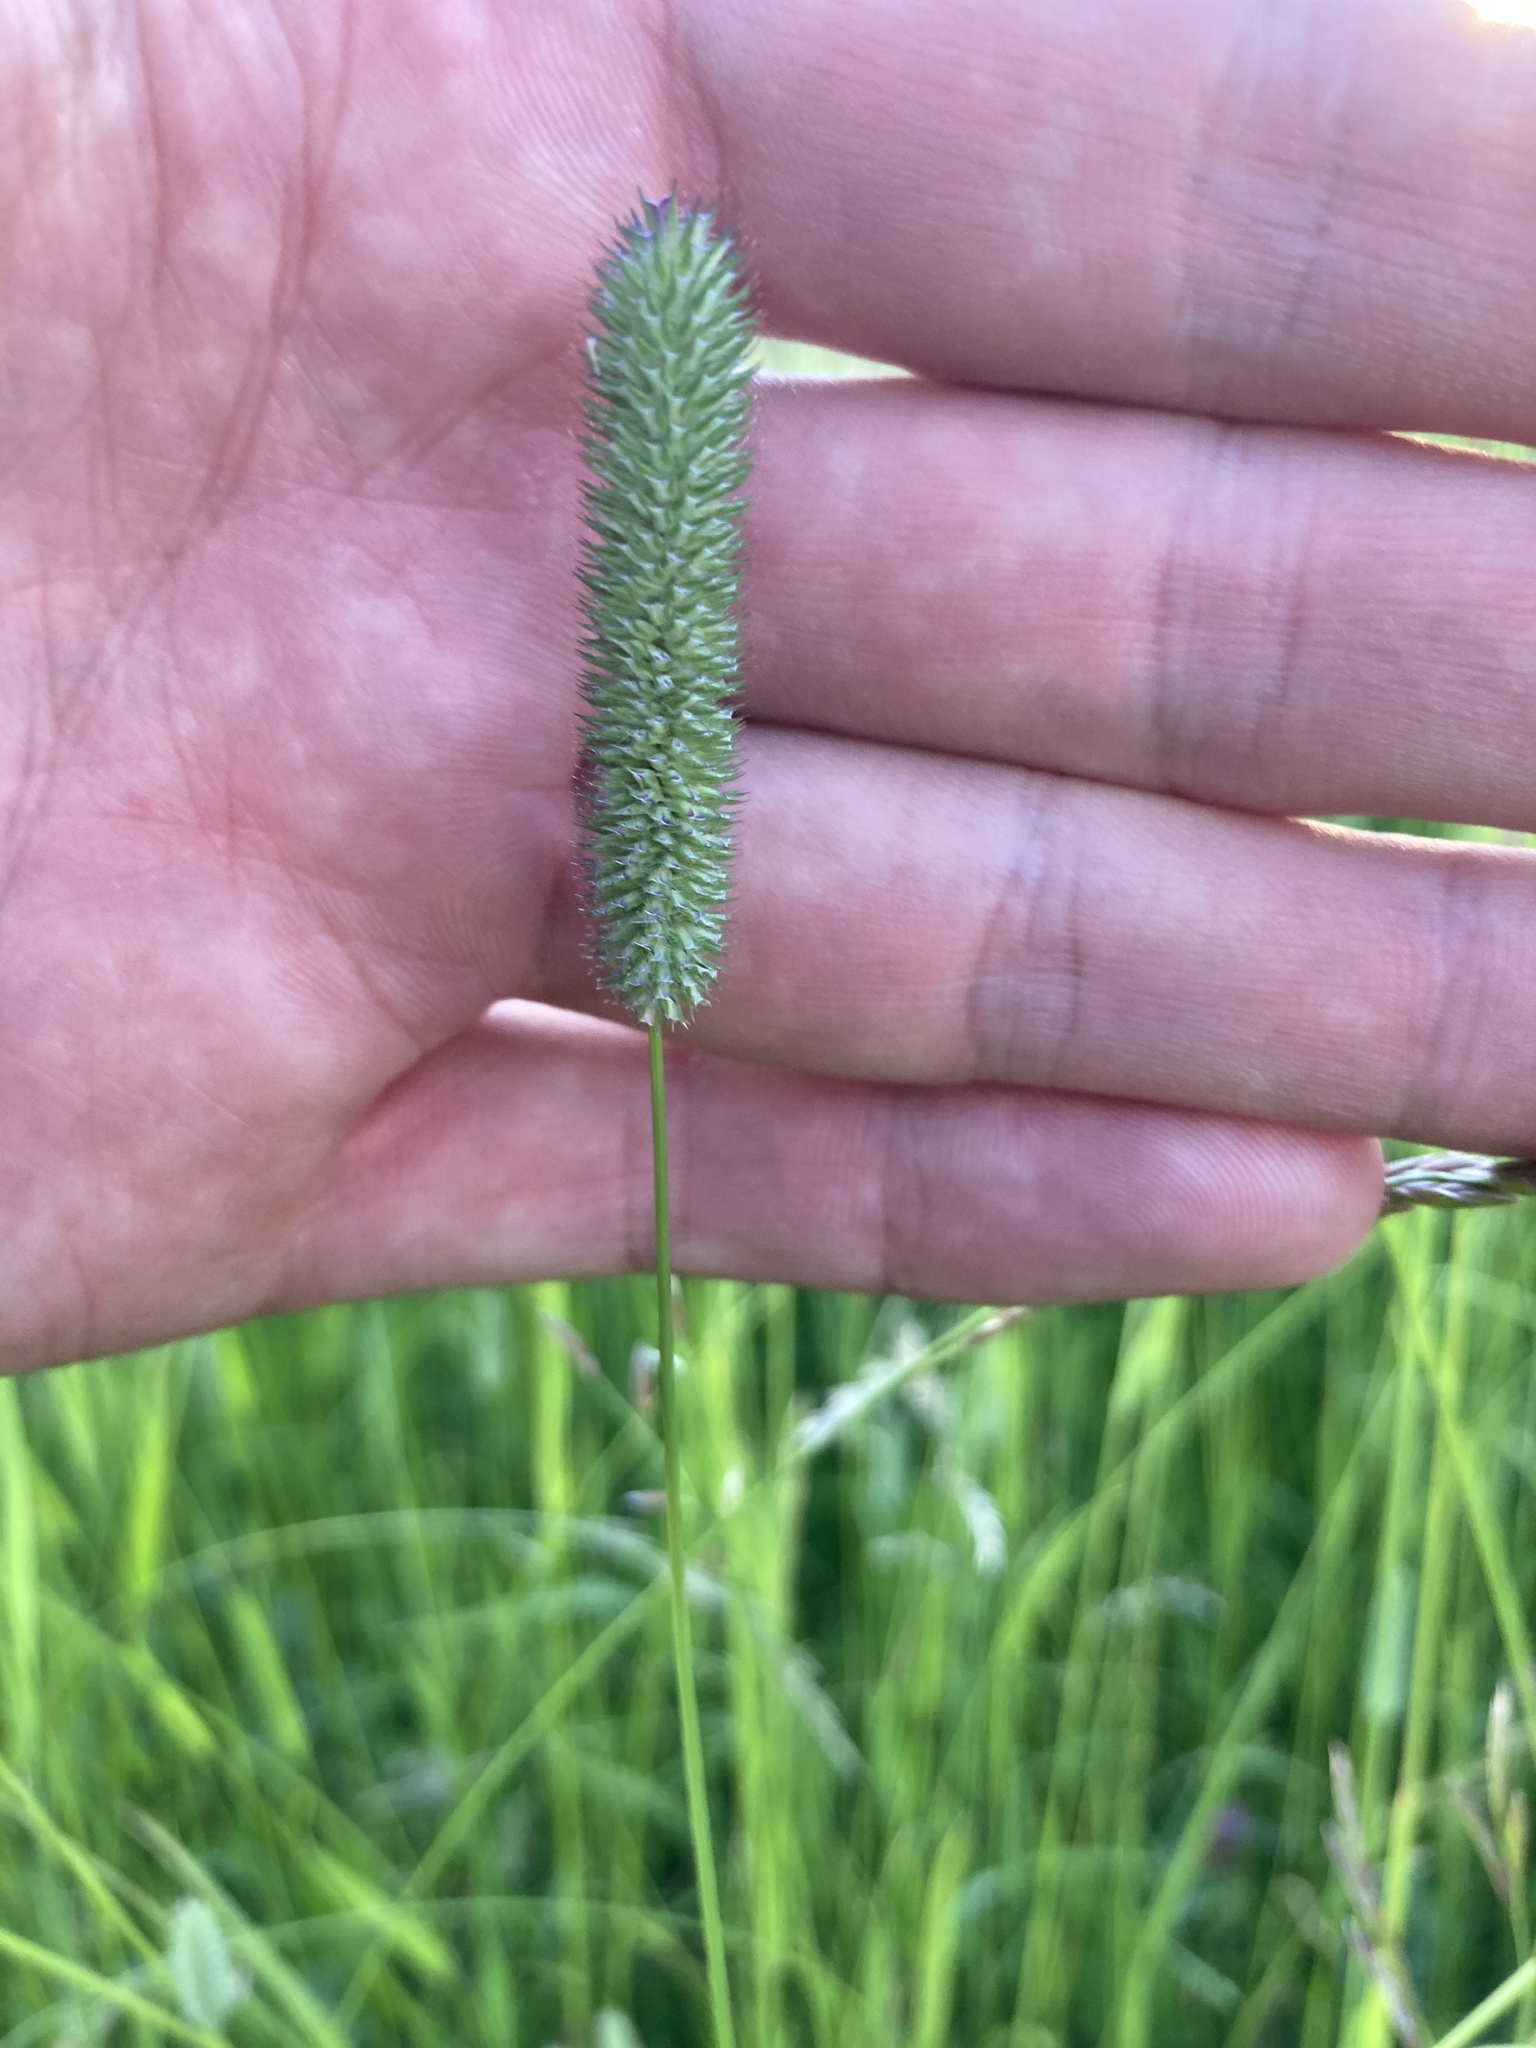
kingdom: Plantae
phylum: Tracheophyta
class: Liliopsida
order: Poales
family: Poaceae
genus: Phleum
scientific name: Phleum pratense
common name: Timothy grass
